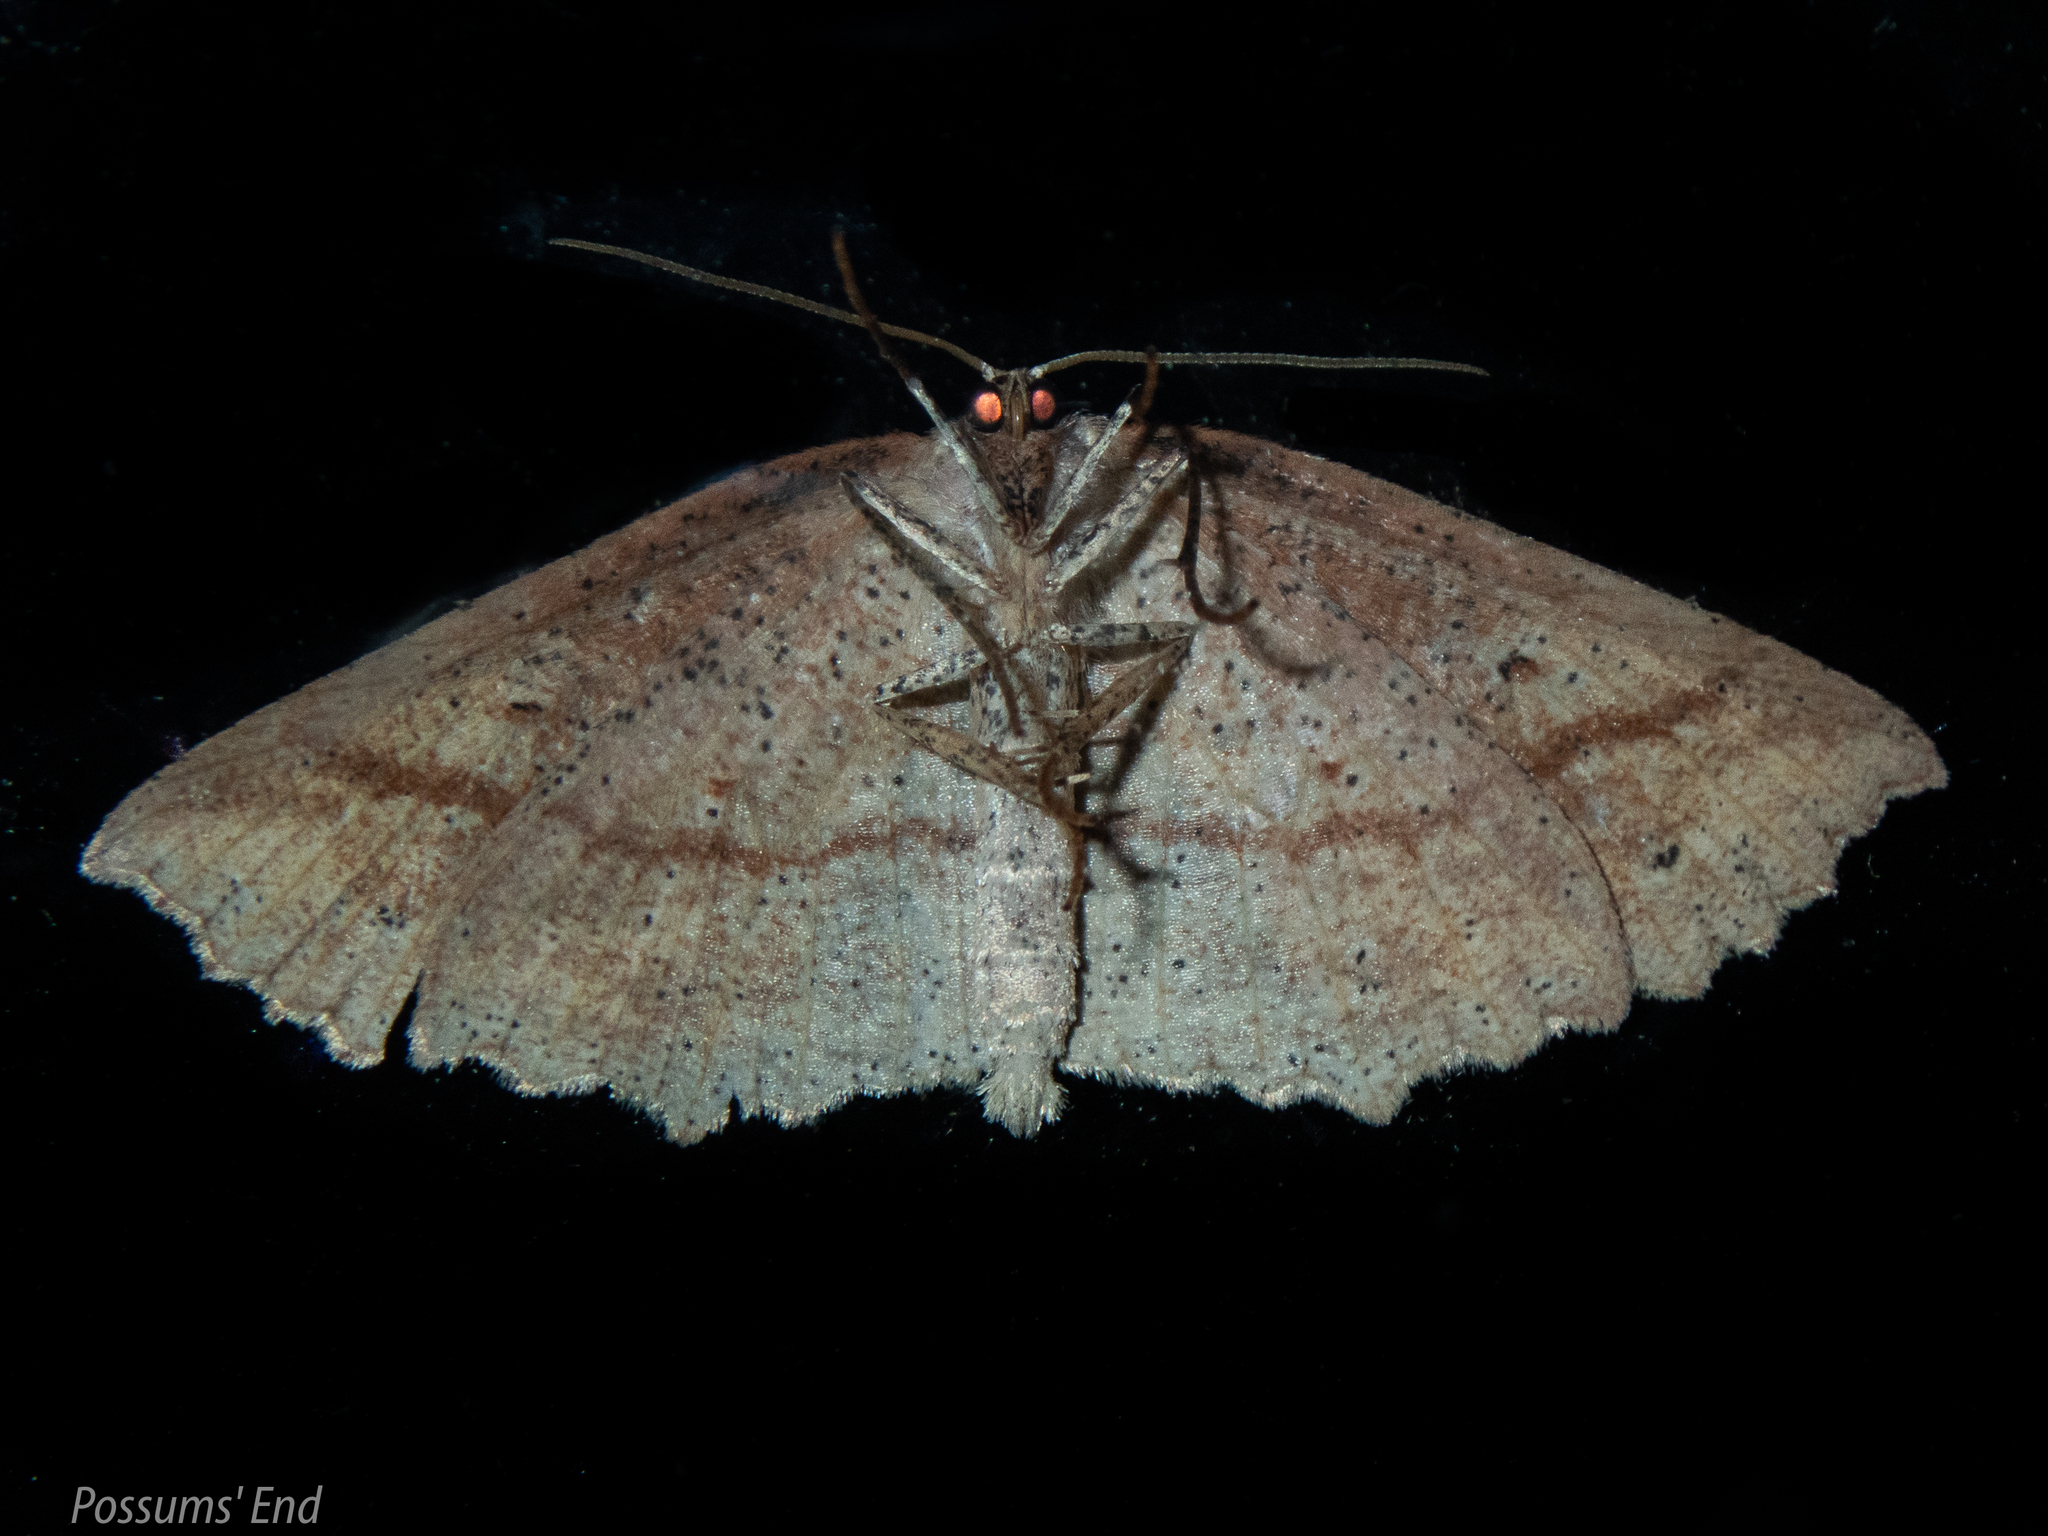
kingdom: Animalia
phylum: Arthropoda
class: Insecta
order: Lepidoptera
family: Geometridae
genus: Xyridacma
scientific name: Xyridacma veronicae
